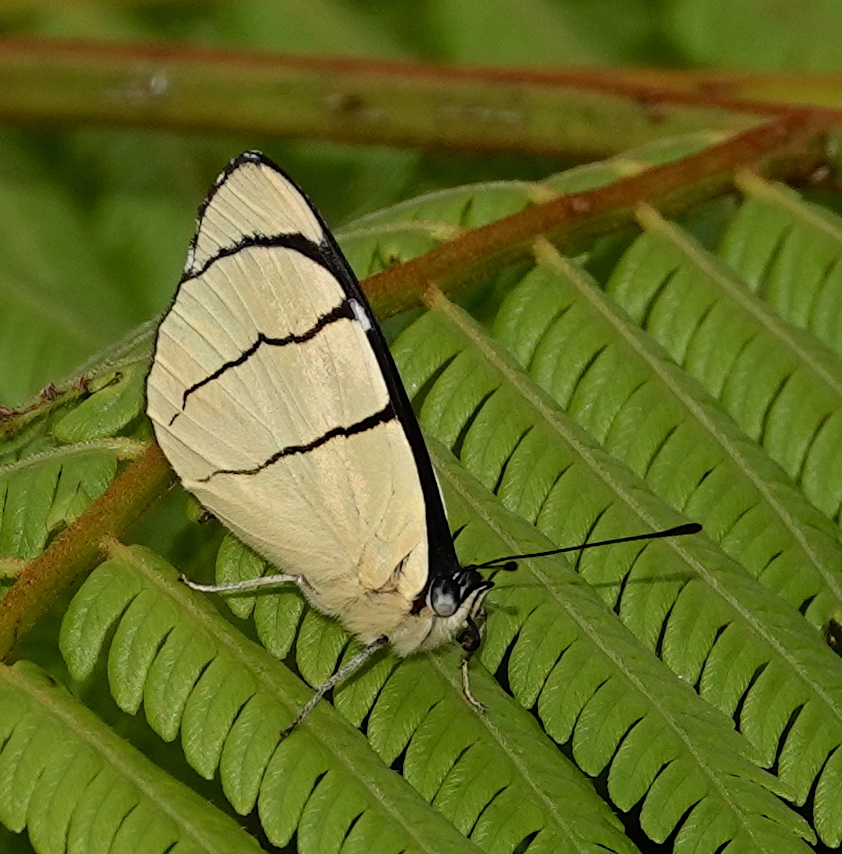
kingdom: Animalia
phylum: Arthropoda
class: Insecta
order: Lepidoptera
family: Nymphalidae
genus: Perisama
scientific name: Perisama oppelii
